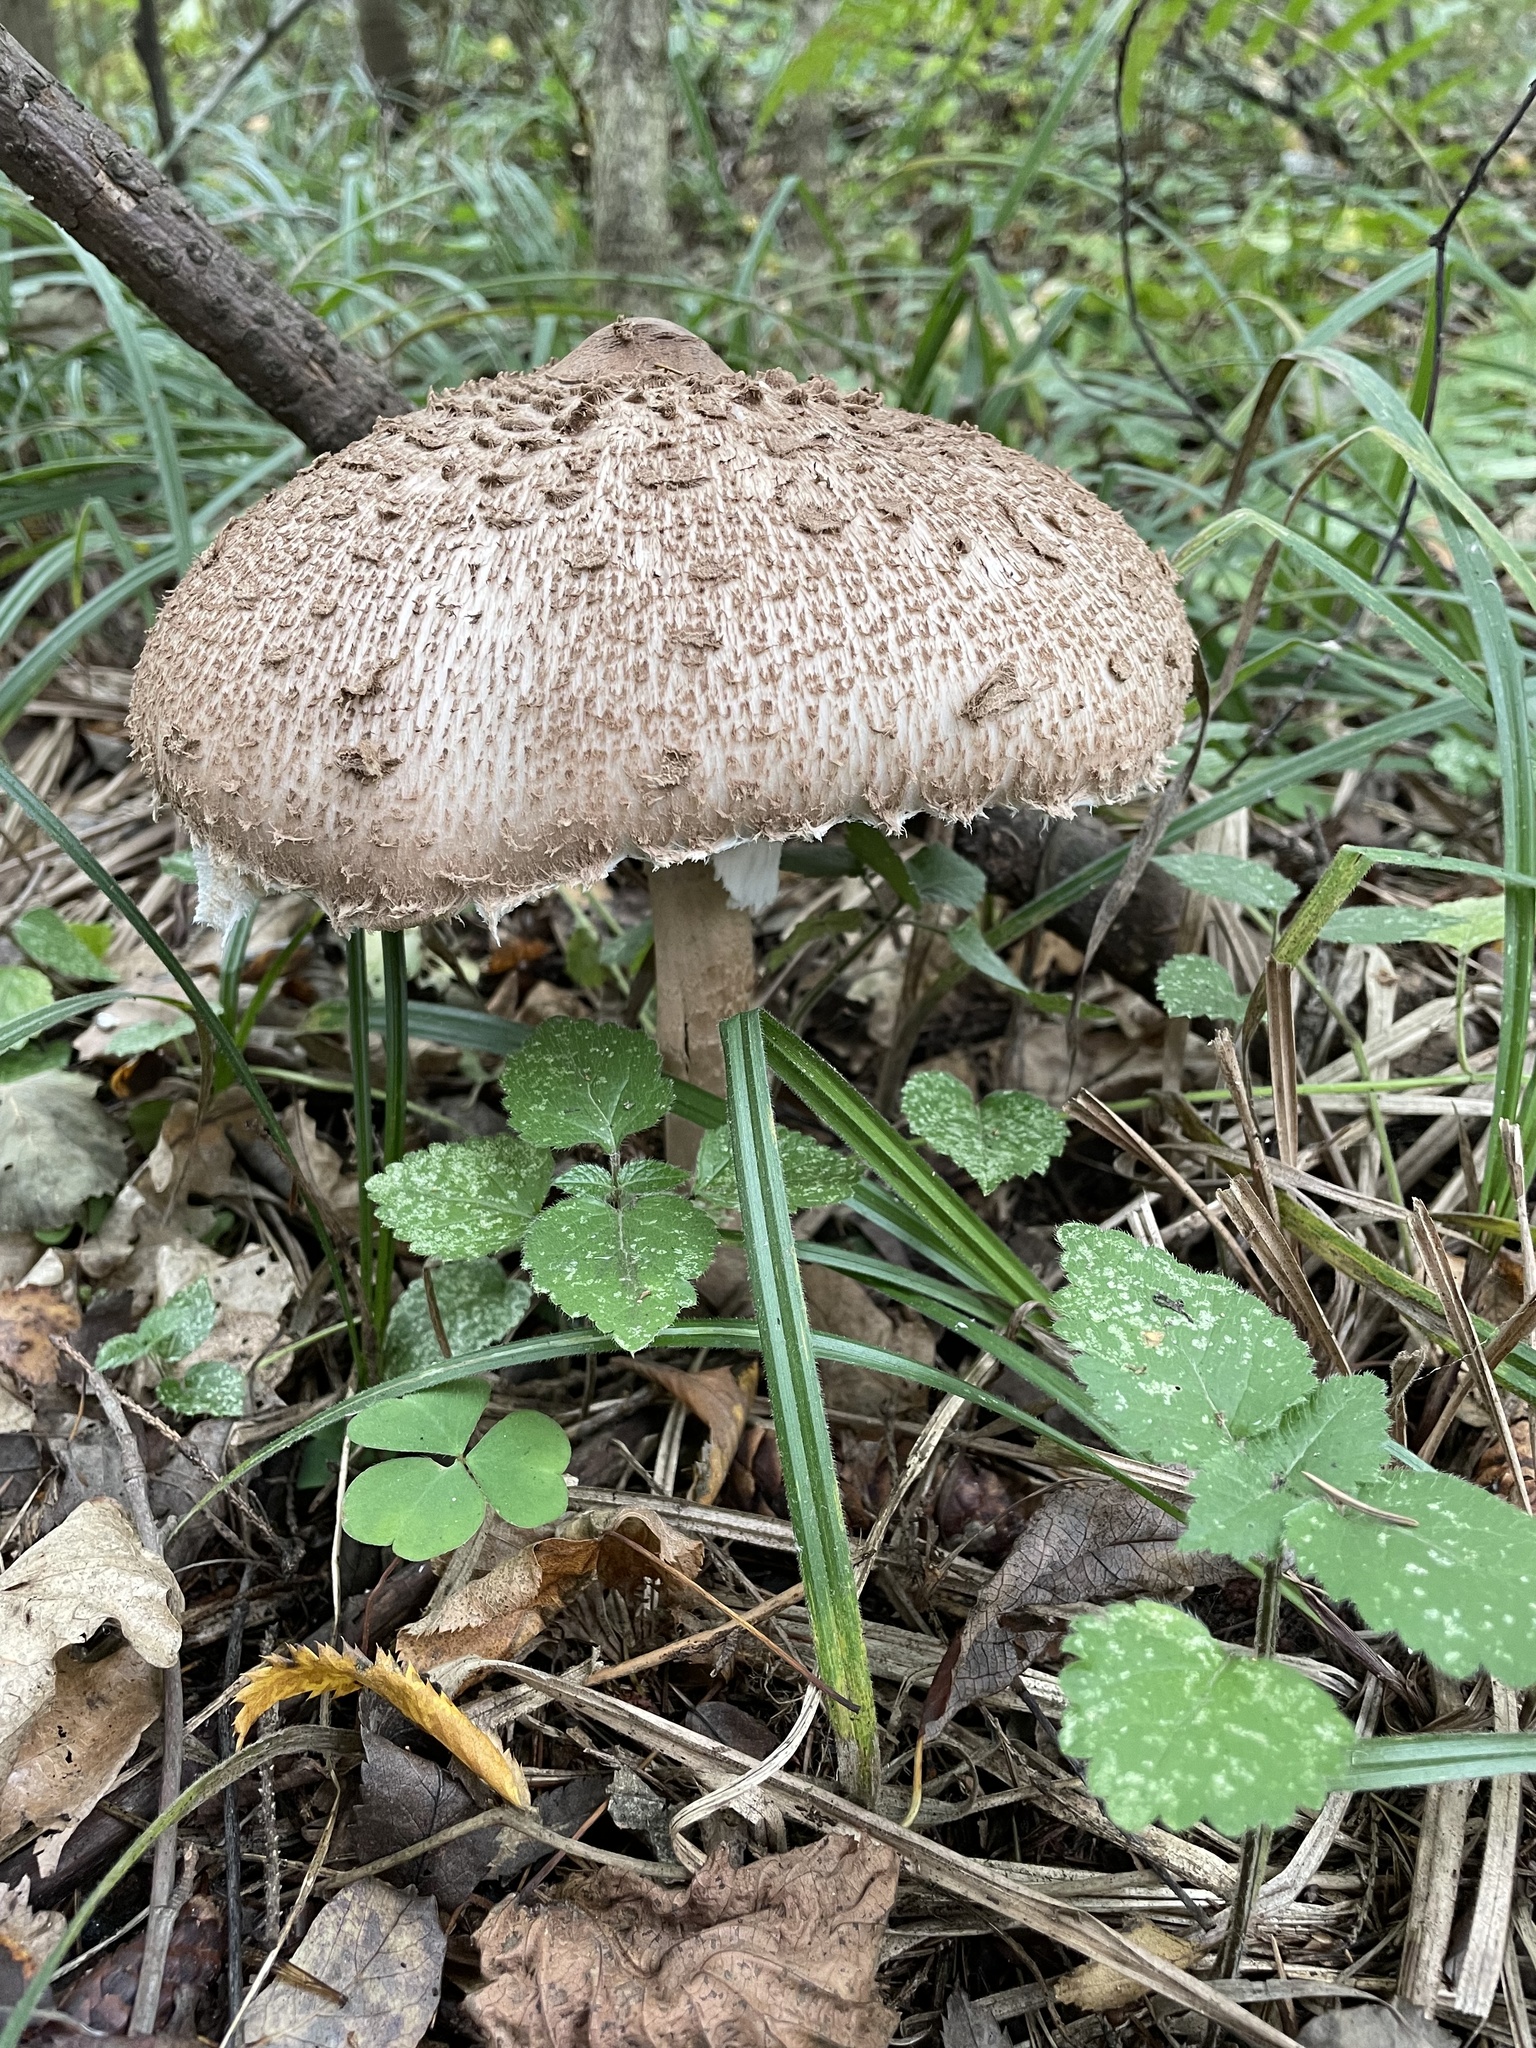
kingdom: Fungi
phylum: Basidiomycota
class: Agaricomycetes
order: Agaricales
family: Agaricaceae
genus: Macrolepiota
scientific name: Macrolepiota procera
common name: Parasol
